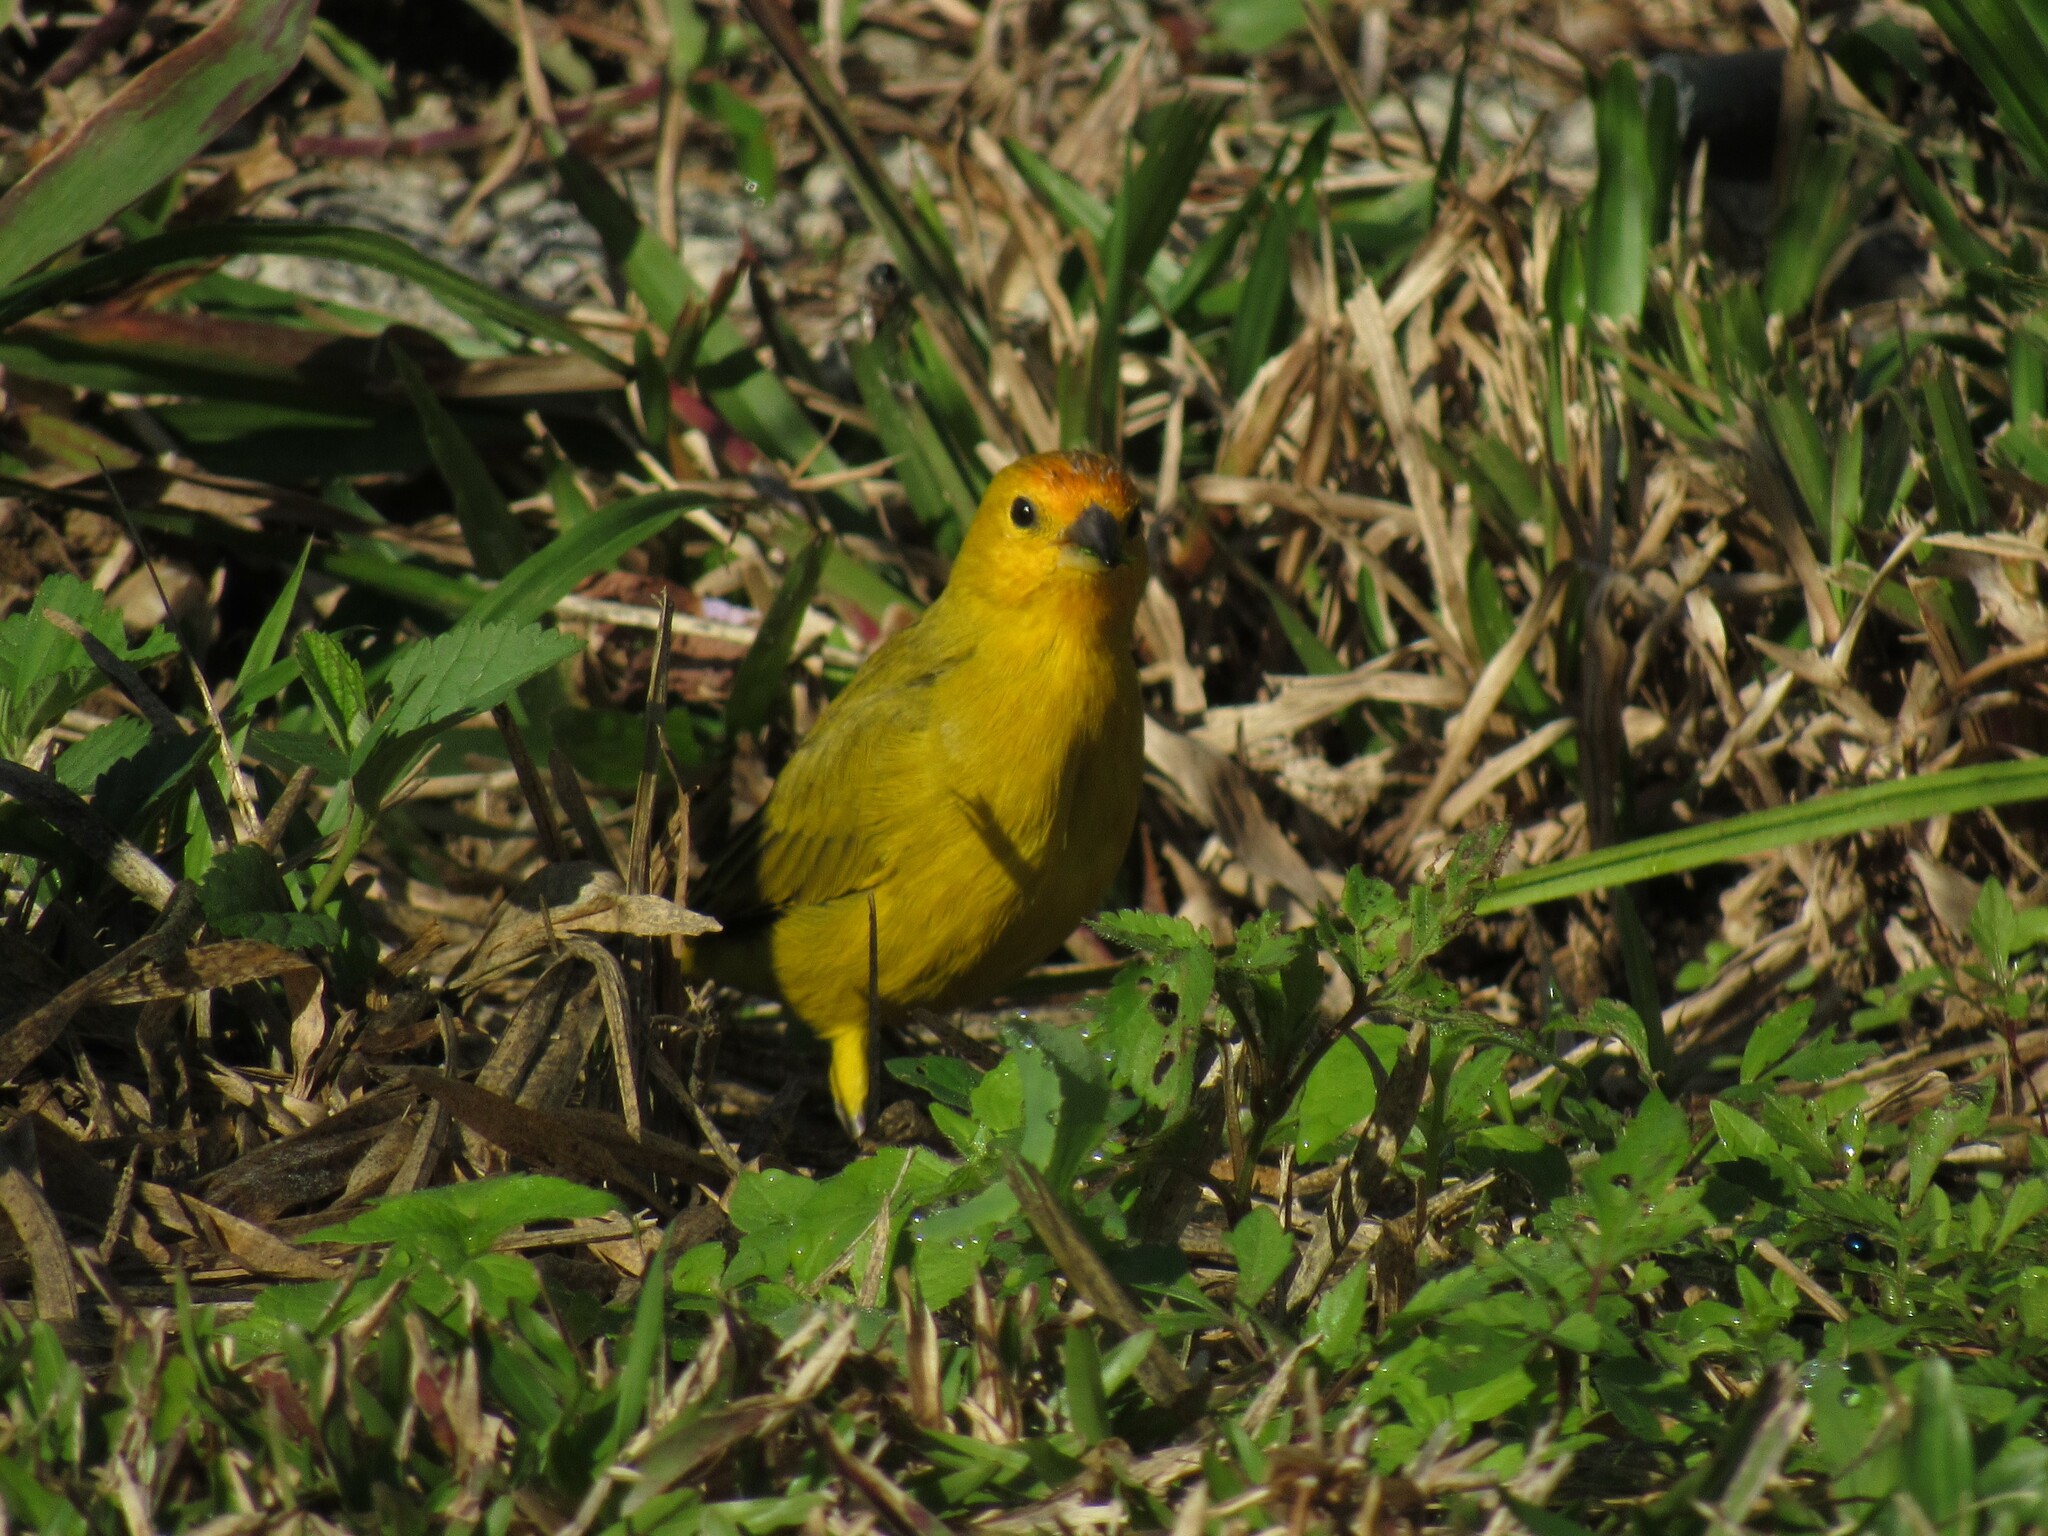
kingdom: Animalia
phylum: Chordata
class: Aves
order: Passeriformes
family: Thraupidae
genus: Sicalis
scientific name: Sicalis flaveola
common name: Saffron finch
